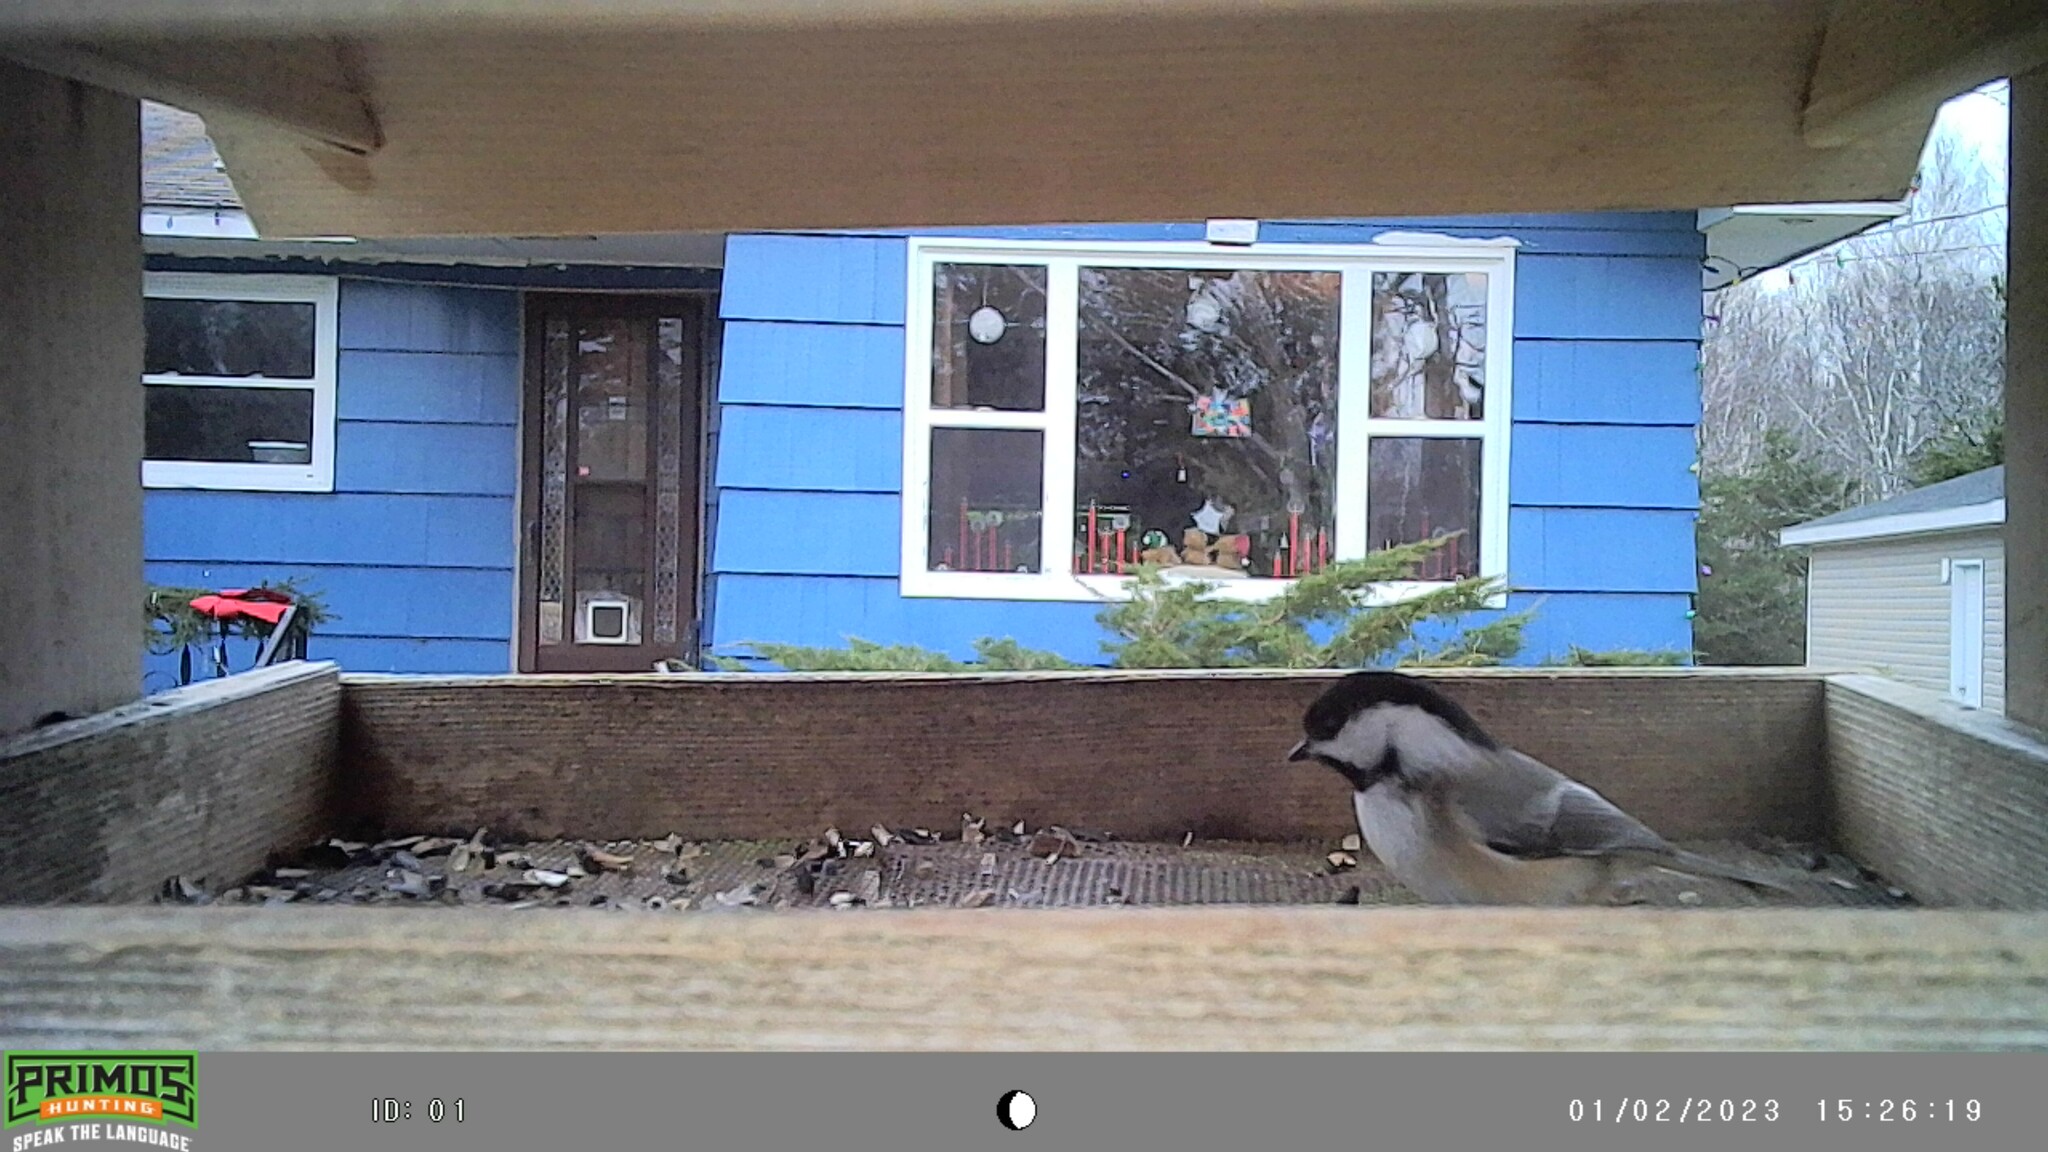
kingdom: Animalia
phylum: Chordata
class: Aves
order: Passeriformes
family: Paridae
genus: Poecile
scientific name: Poecile atricapillus
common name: Black-capped chickadee
